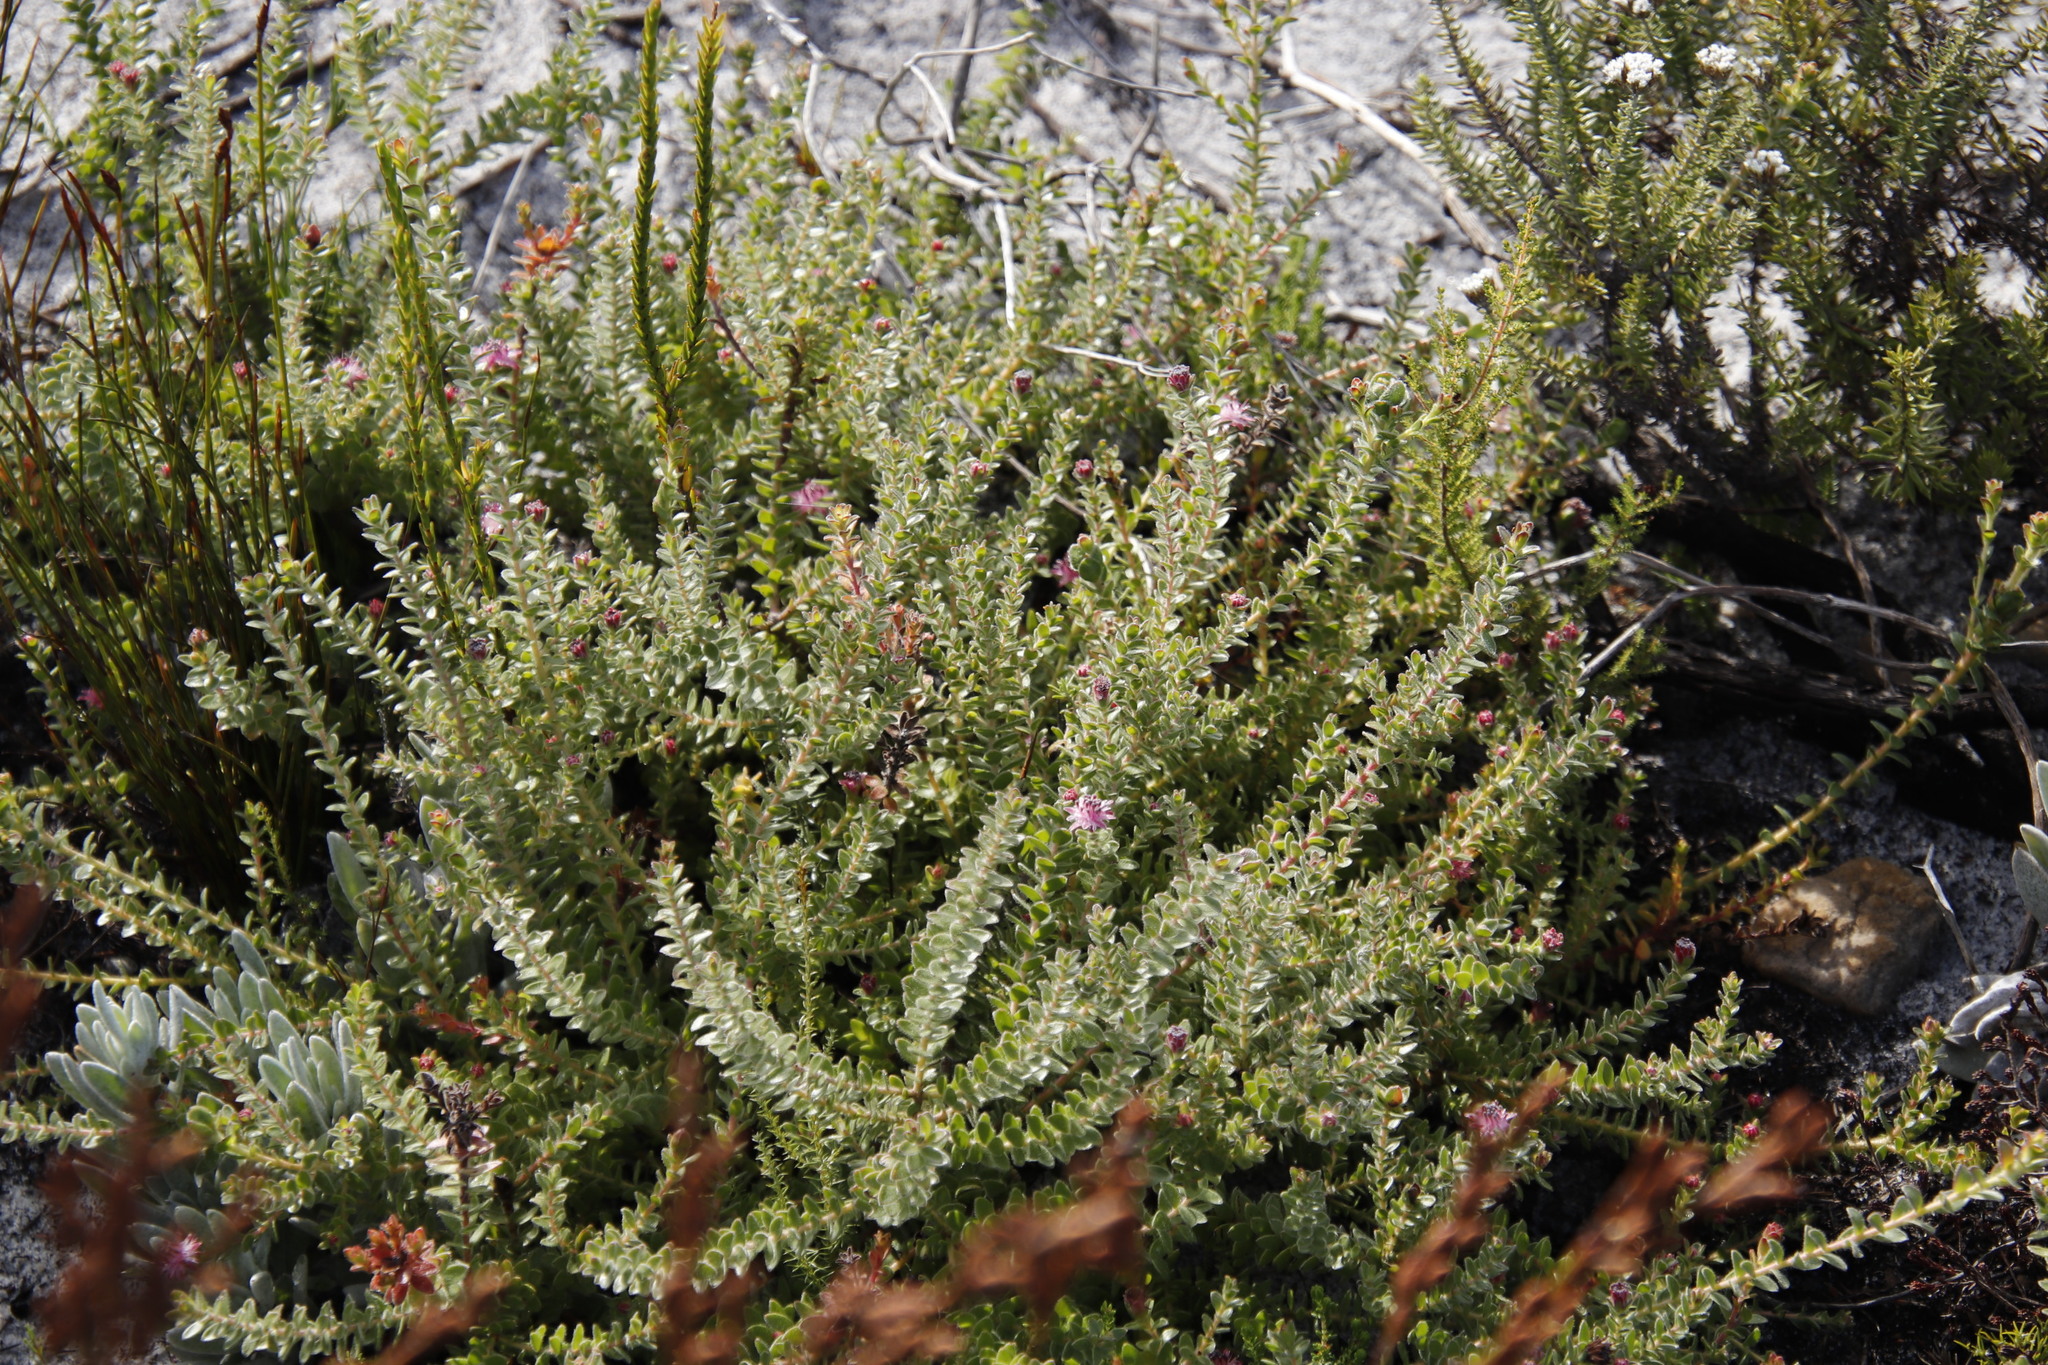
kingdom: Plantae
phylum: Tracheophyta
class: Magnoliopsida
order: Proteales
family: Proteaceae
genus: Diastella
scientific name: Diastella divaricata
